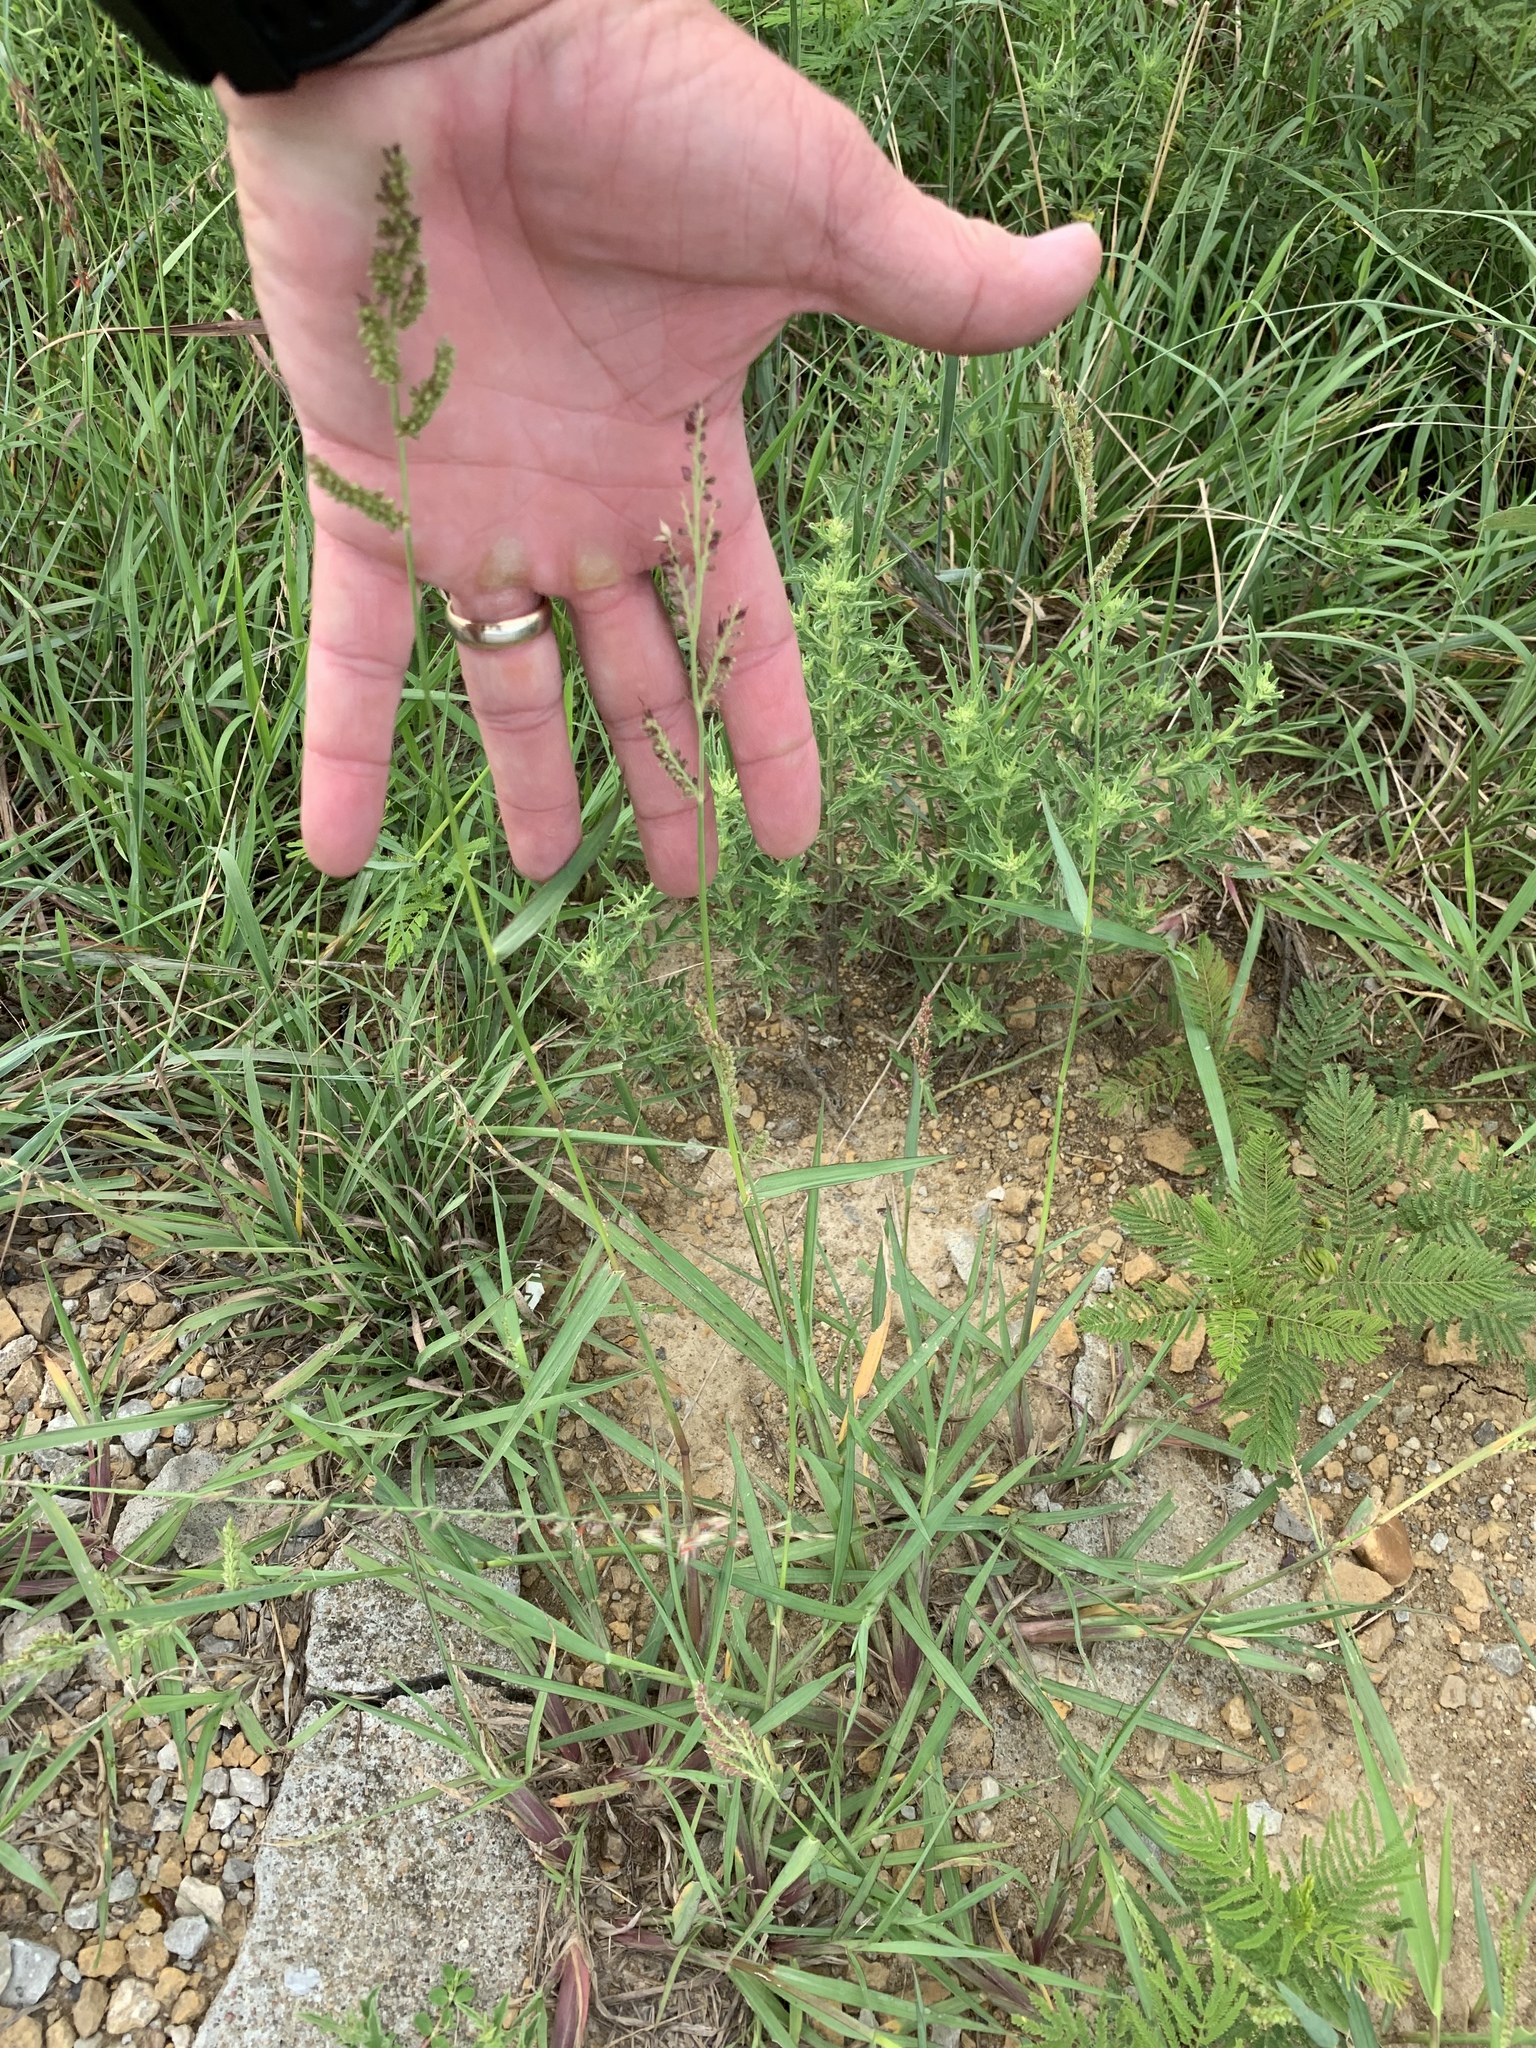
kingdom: Plantae
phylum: Tracheophyta
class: Liliopsida
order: Poales
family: Poaceae
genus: Echinochloa
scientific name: Echinochloa
